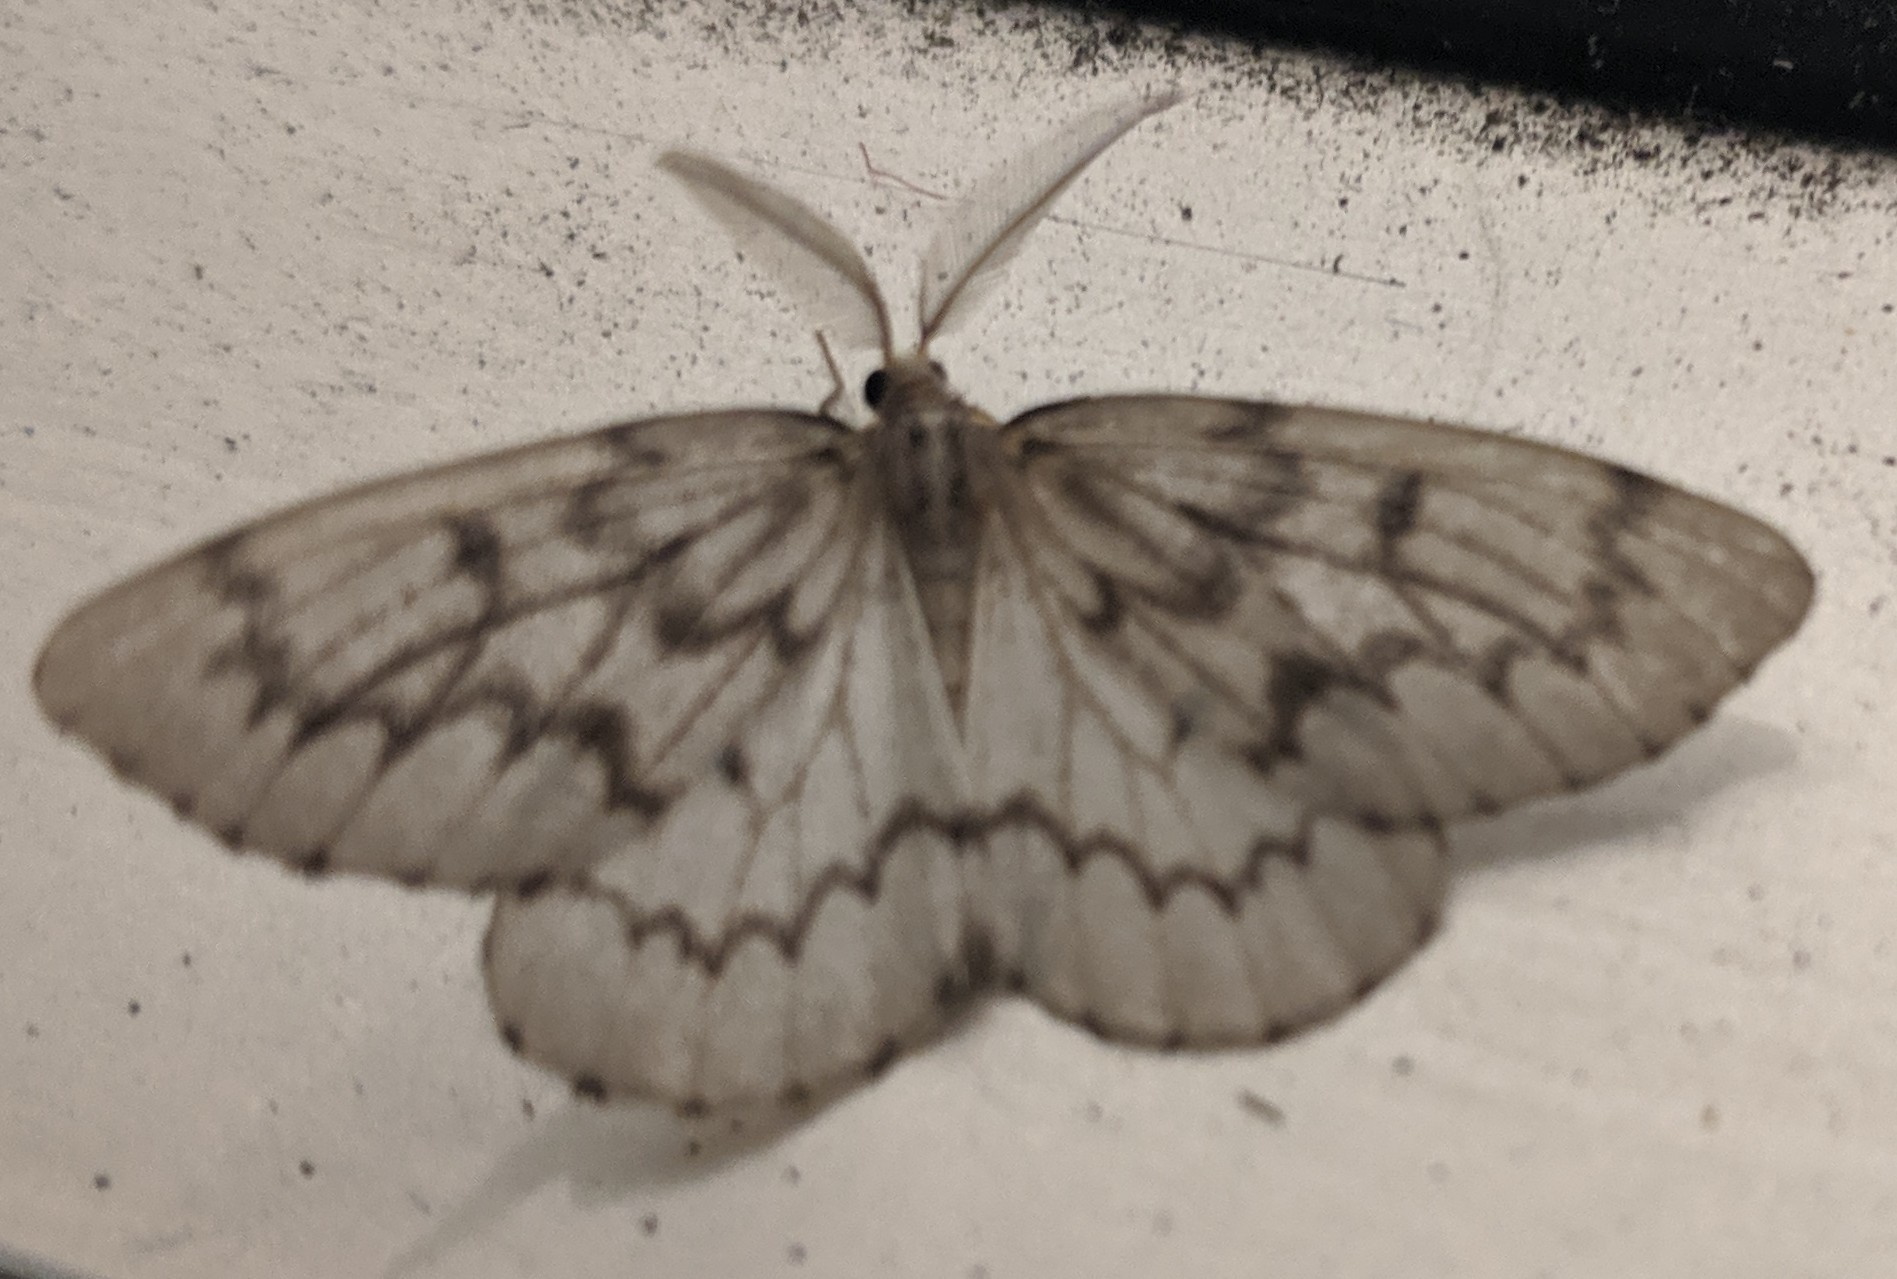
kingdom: Animalia
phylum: Arthropoda
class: Insecta
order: Lepidoptera
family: Geometridae
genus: Nepytia
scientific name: Nepytia phantasmaria
